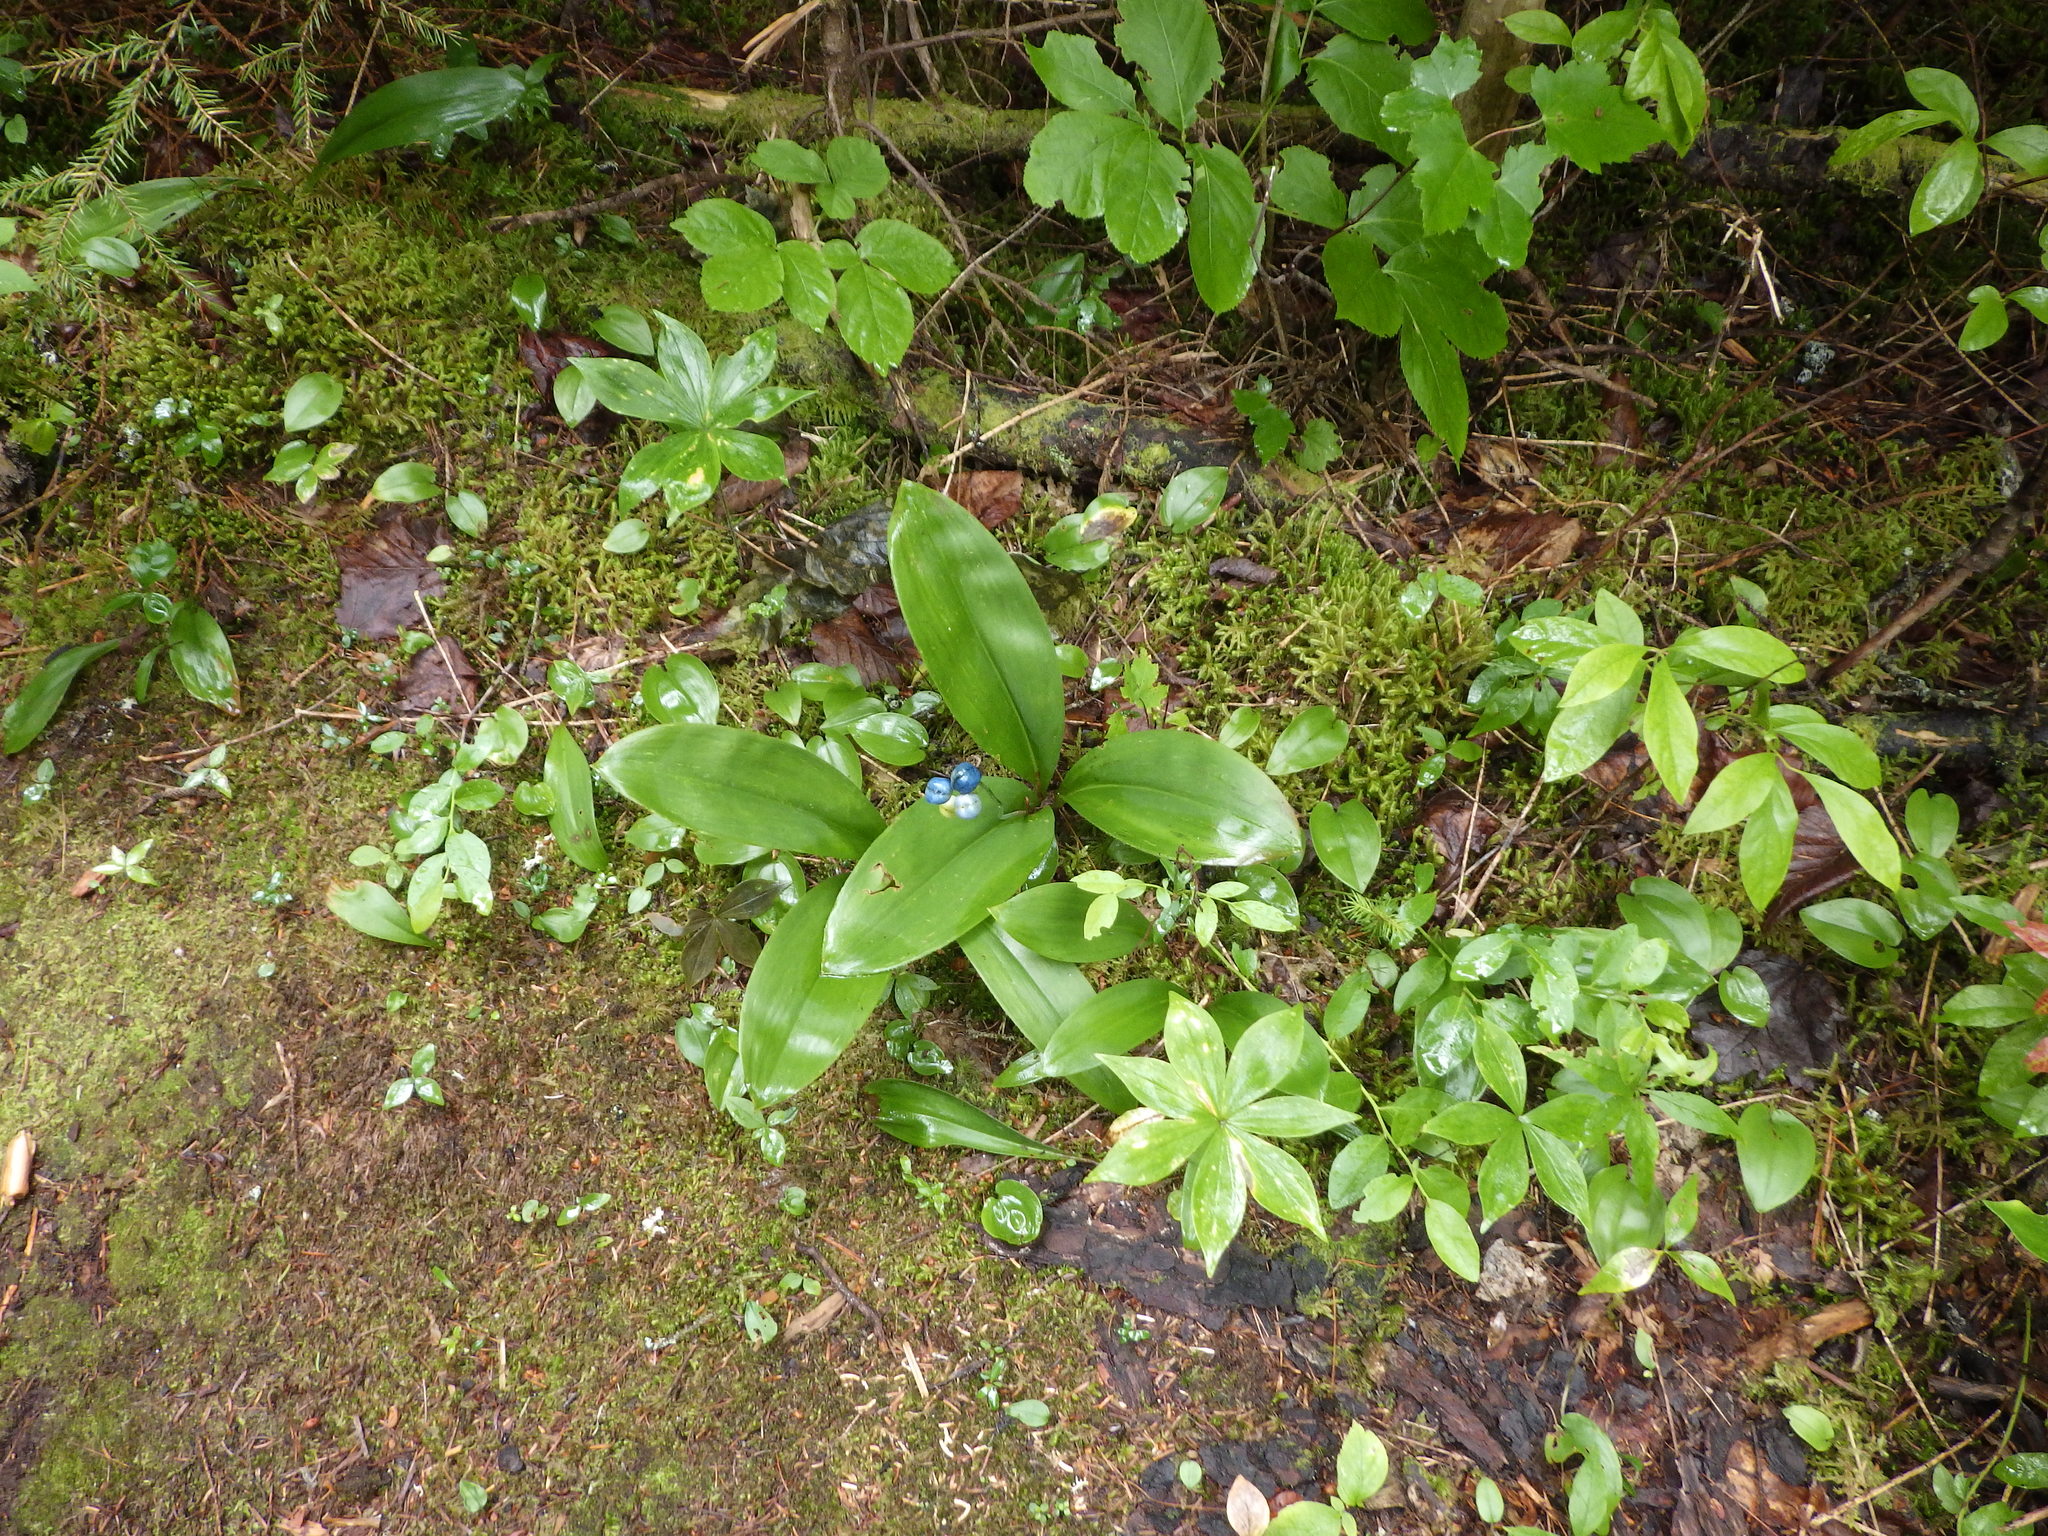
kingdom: Plantae
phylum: Tracheophyta
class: Liliopsida
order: Liliales
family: Liliaceae
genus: Clintonia
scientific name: Clintonia borealis
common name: Yellow clintonia
